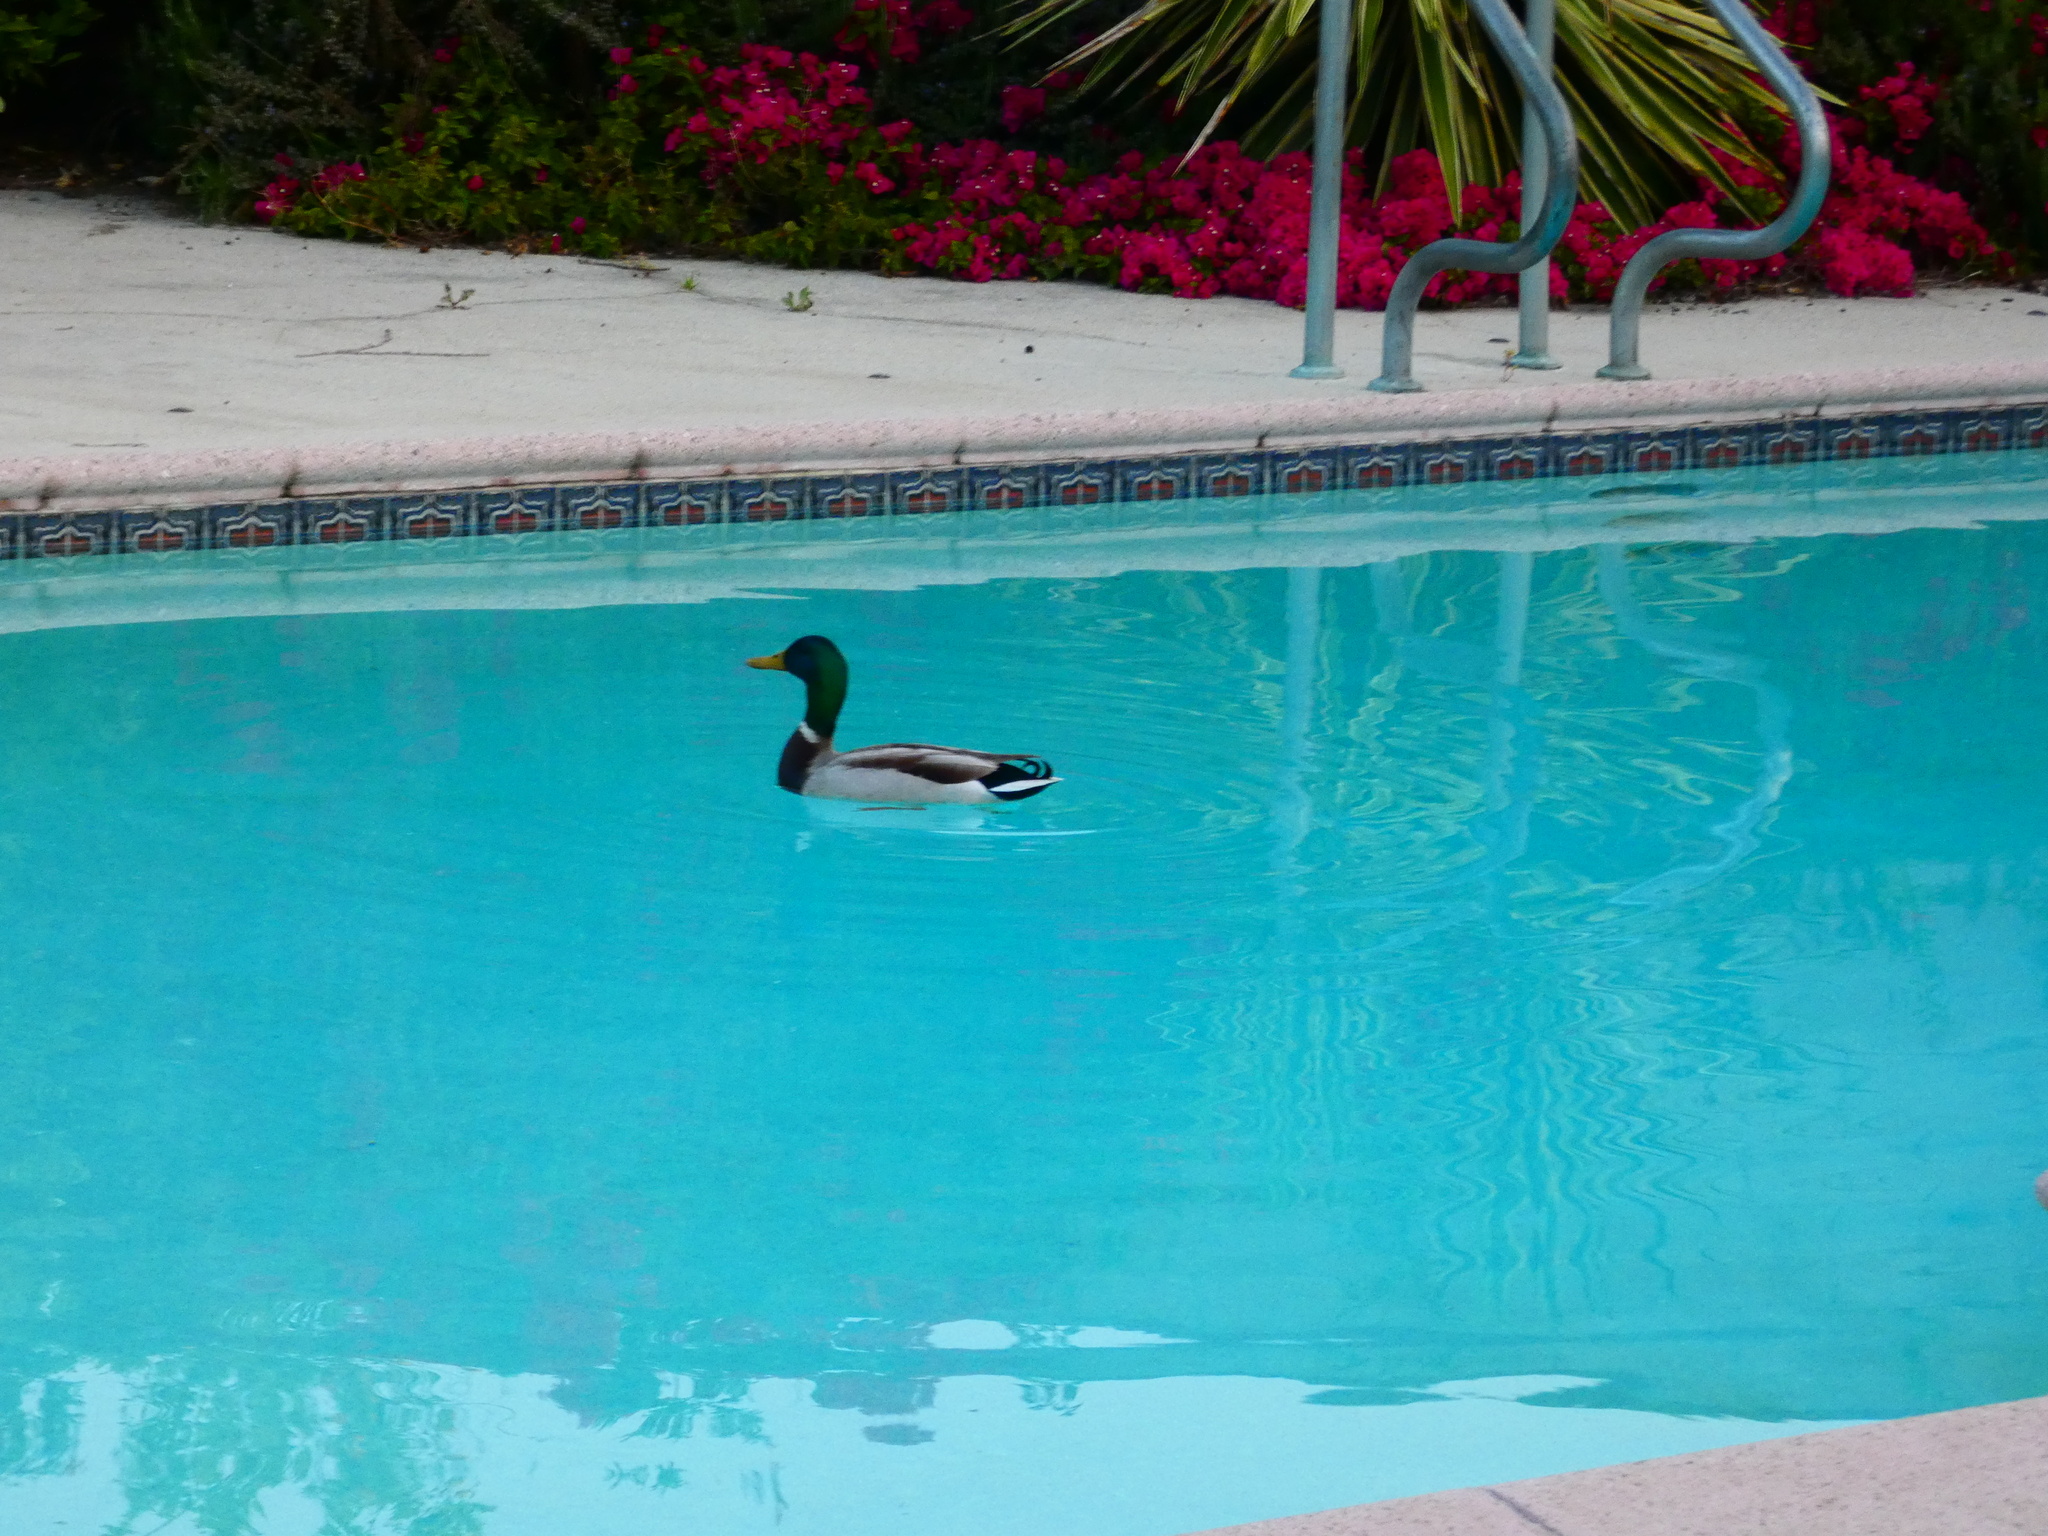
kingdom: Animalia
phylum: Chordata
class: Aves
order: Anseriformes
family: Anatidae
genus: Anas
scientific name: Anas platyrhynchos
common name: Mallard
